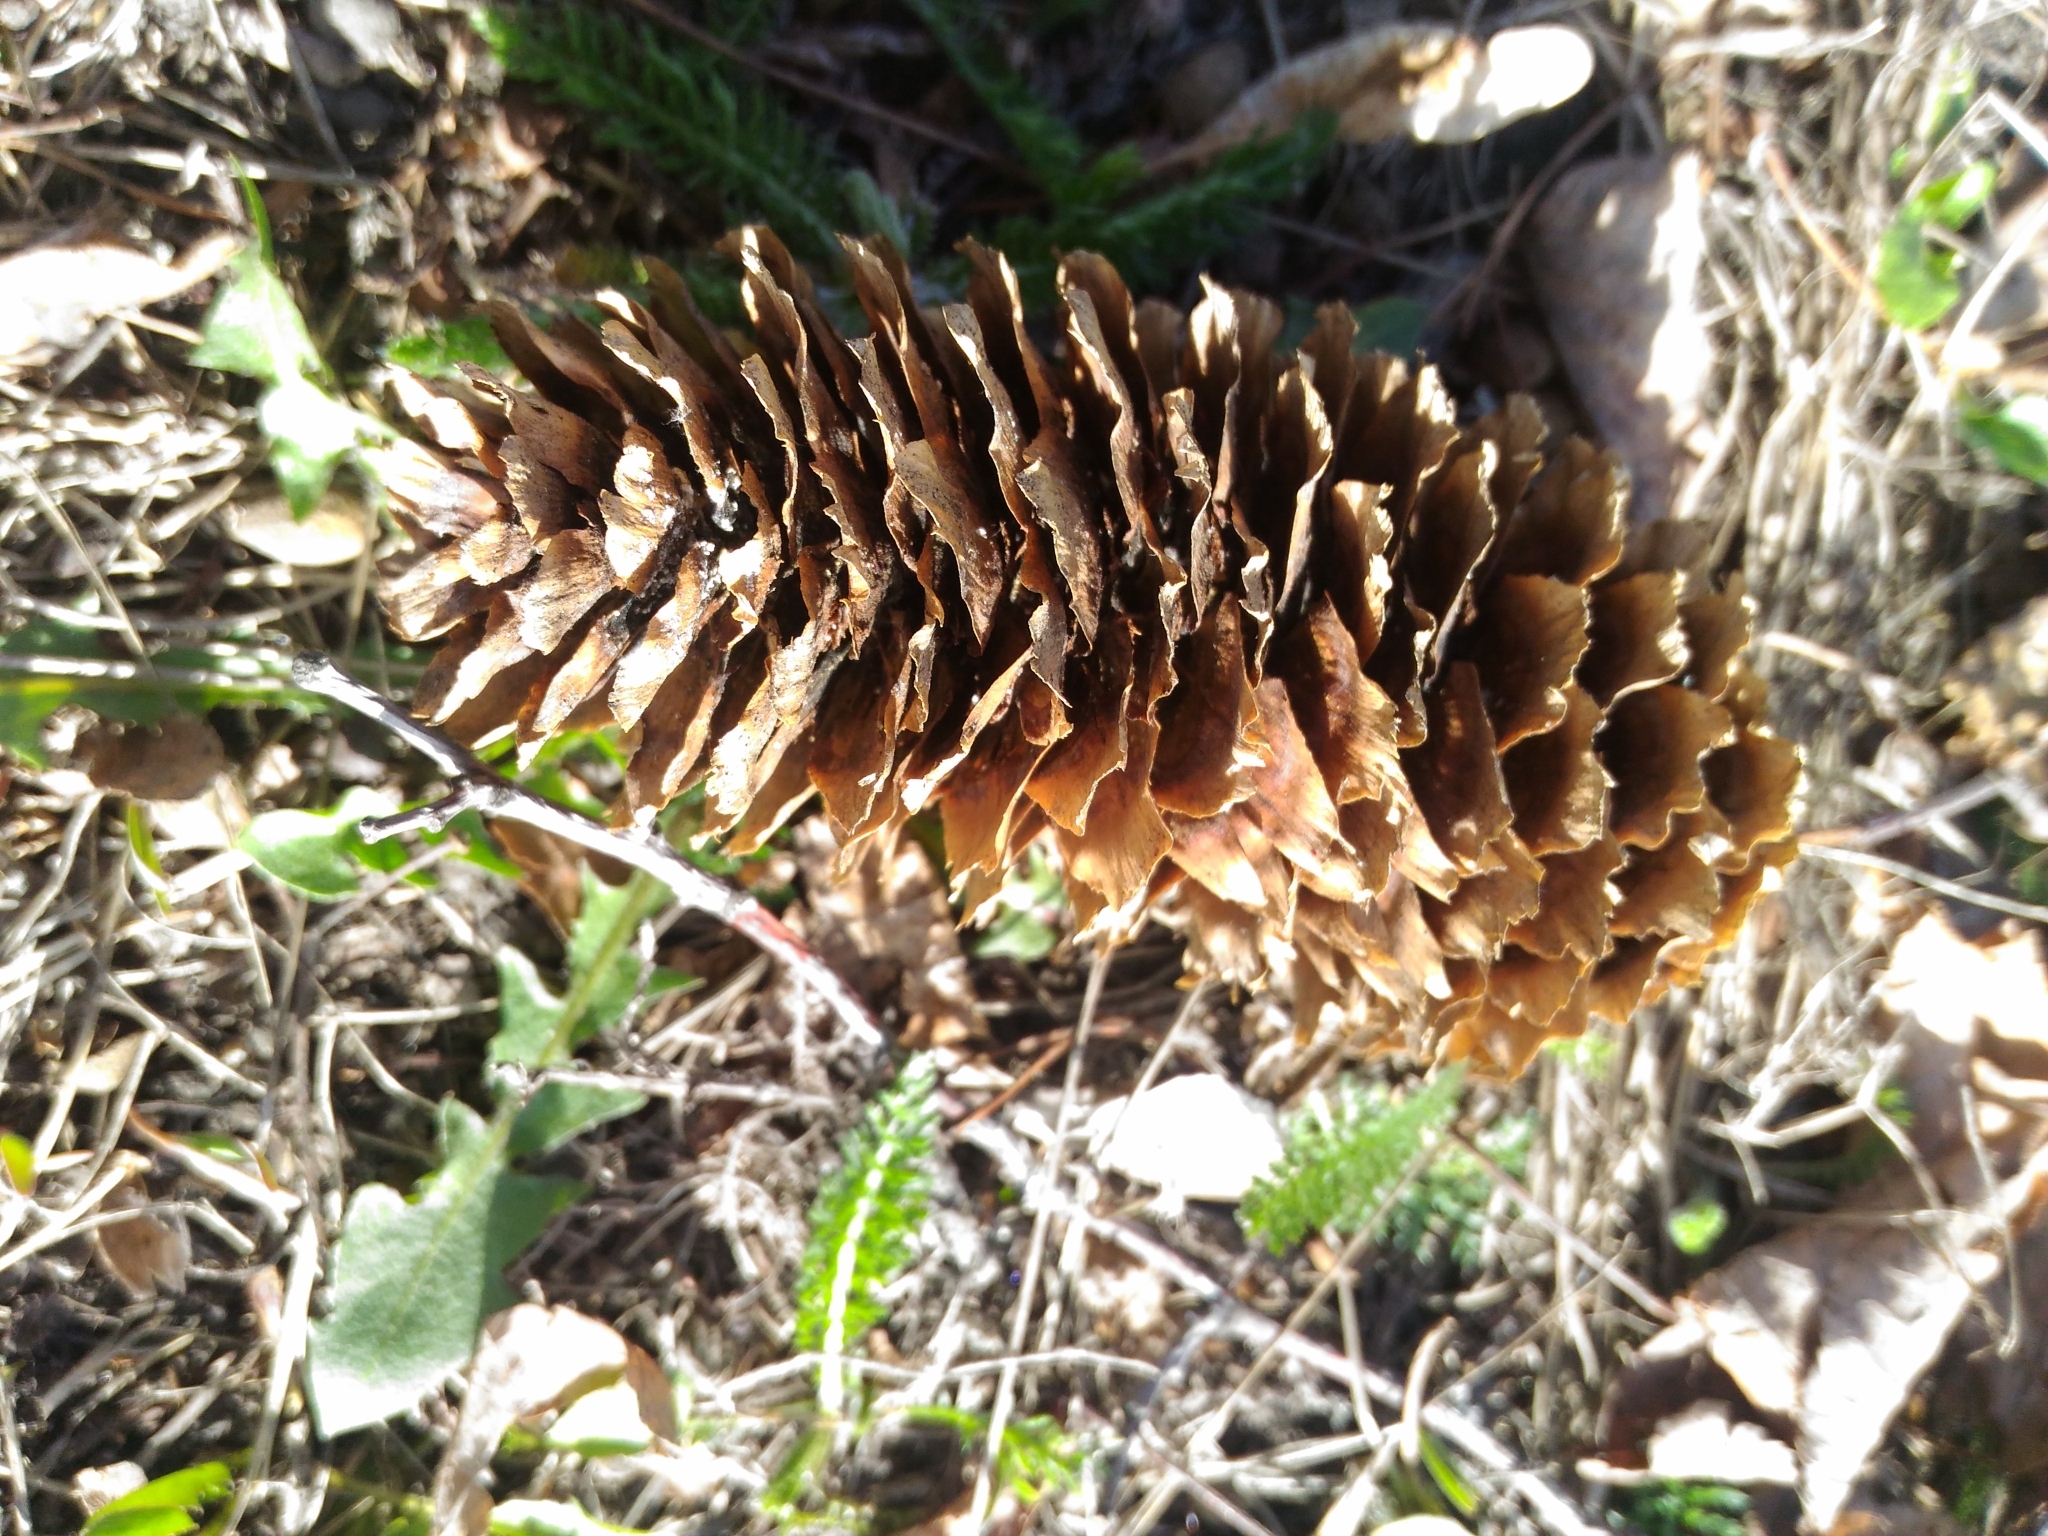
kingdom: Plantae
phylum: Tracheophyta
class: Pinopsida
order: Pinales
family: Pinaceae
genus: Picea
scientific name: Picea abies
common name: Norway spruce
